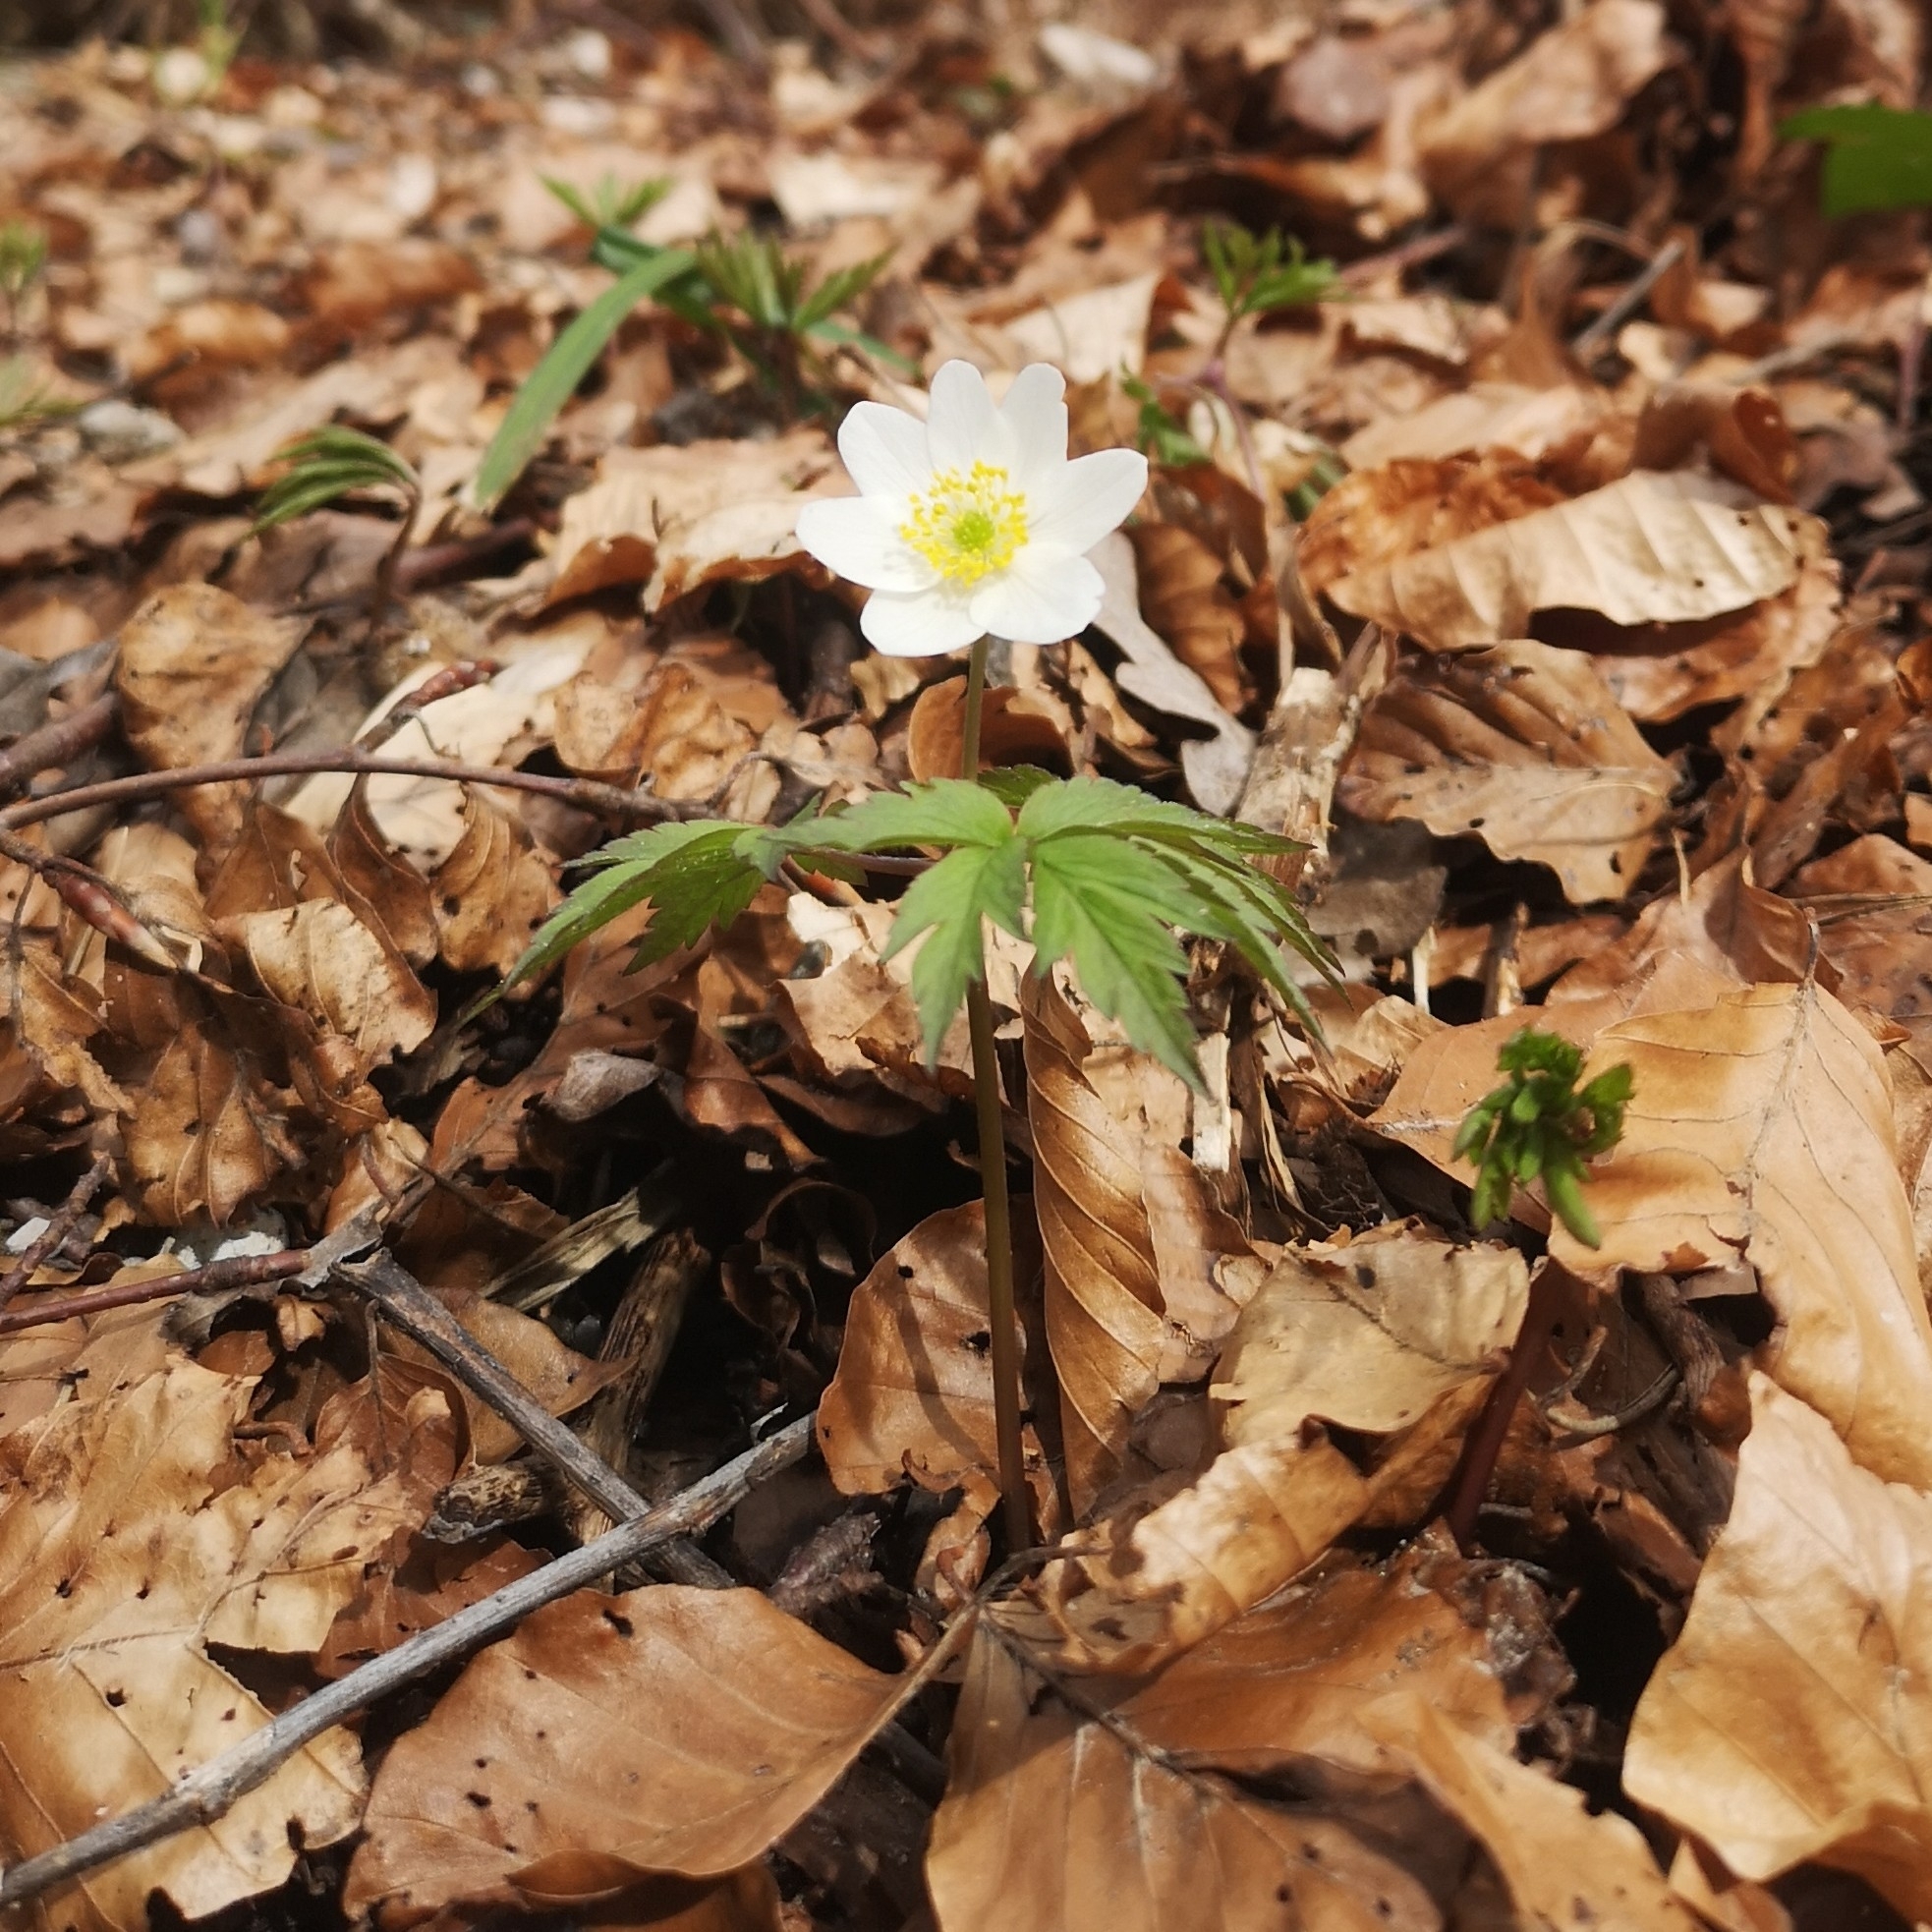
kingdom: Plantae
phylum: Tracheophyta
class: Magnoliopsida
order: Ranunculales
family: Ranunculaceae
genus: Anemone
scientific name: Anemone nemorosa
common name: Wood anemone
